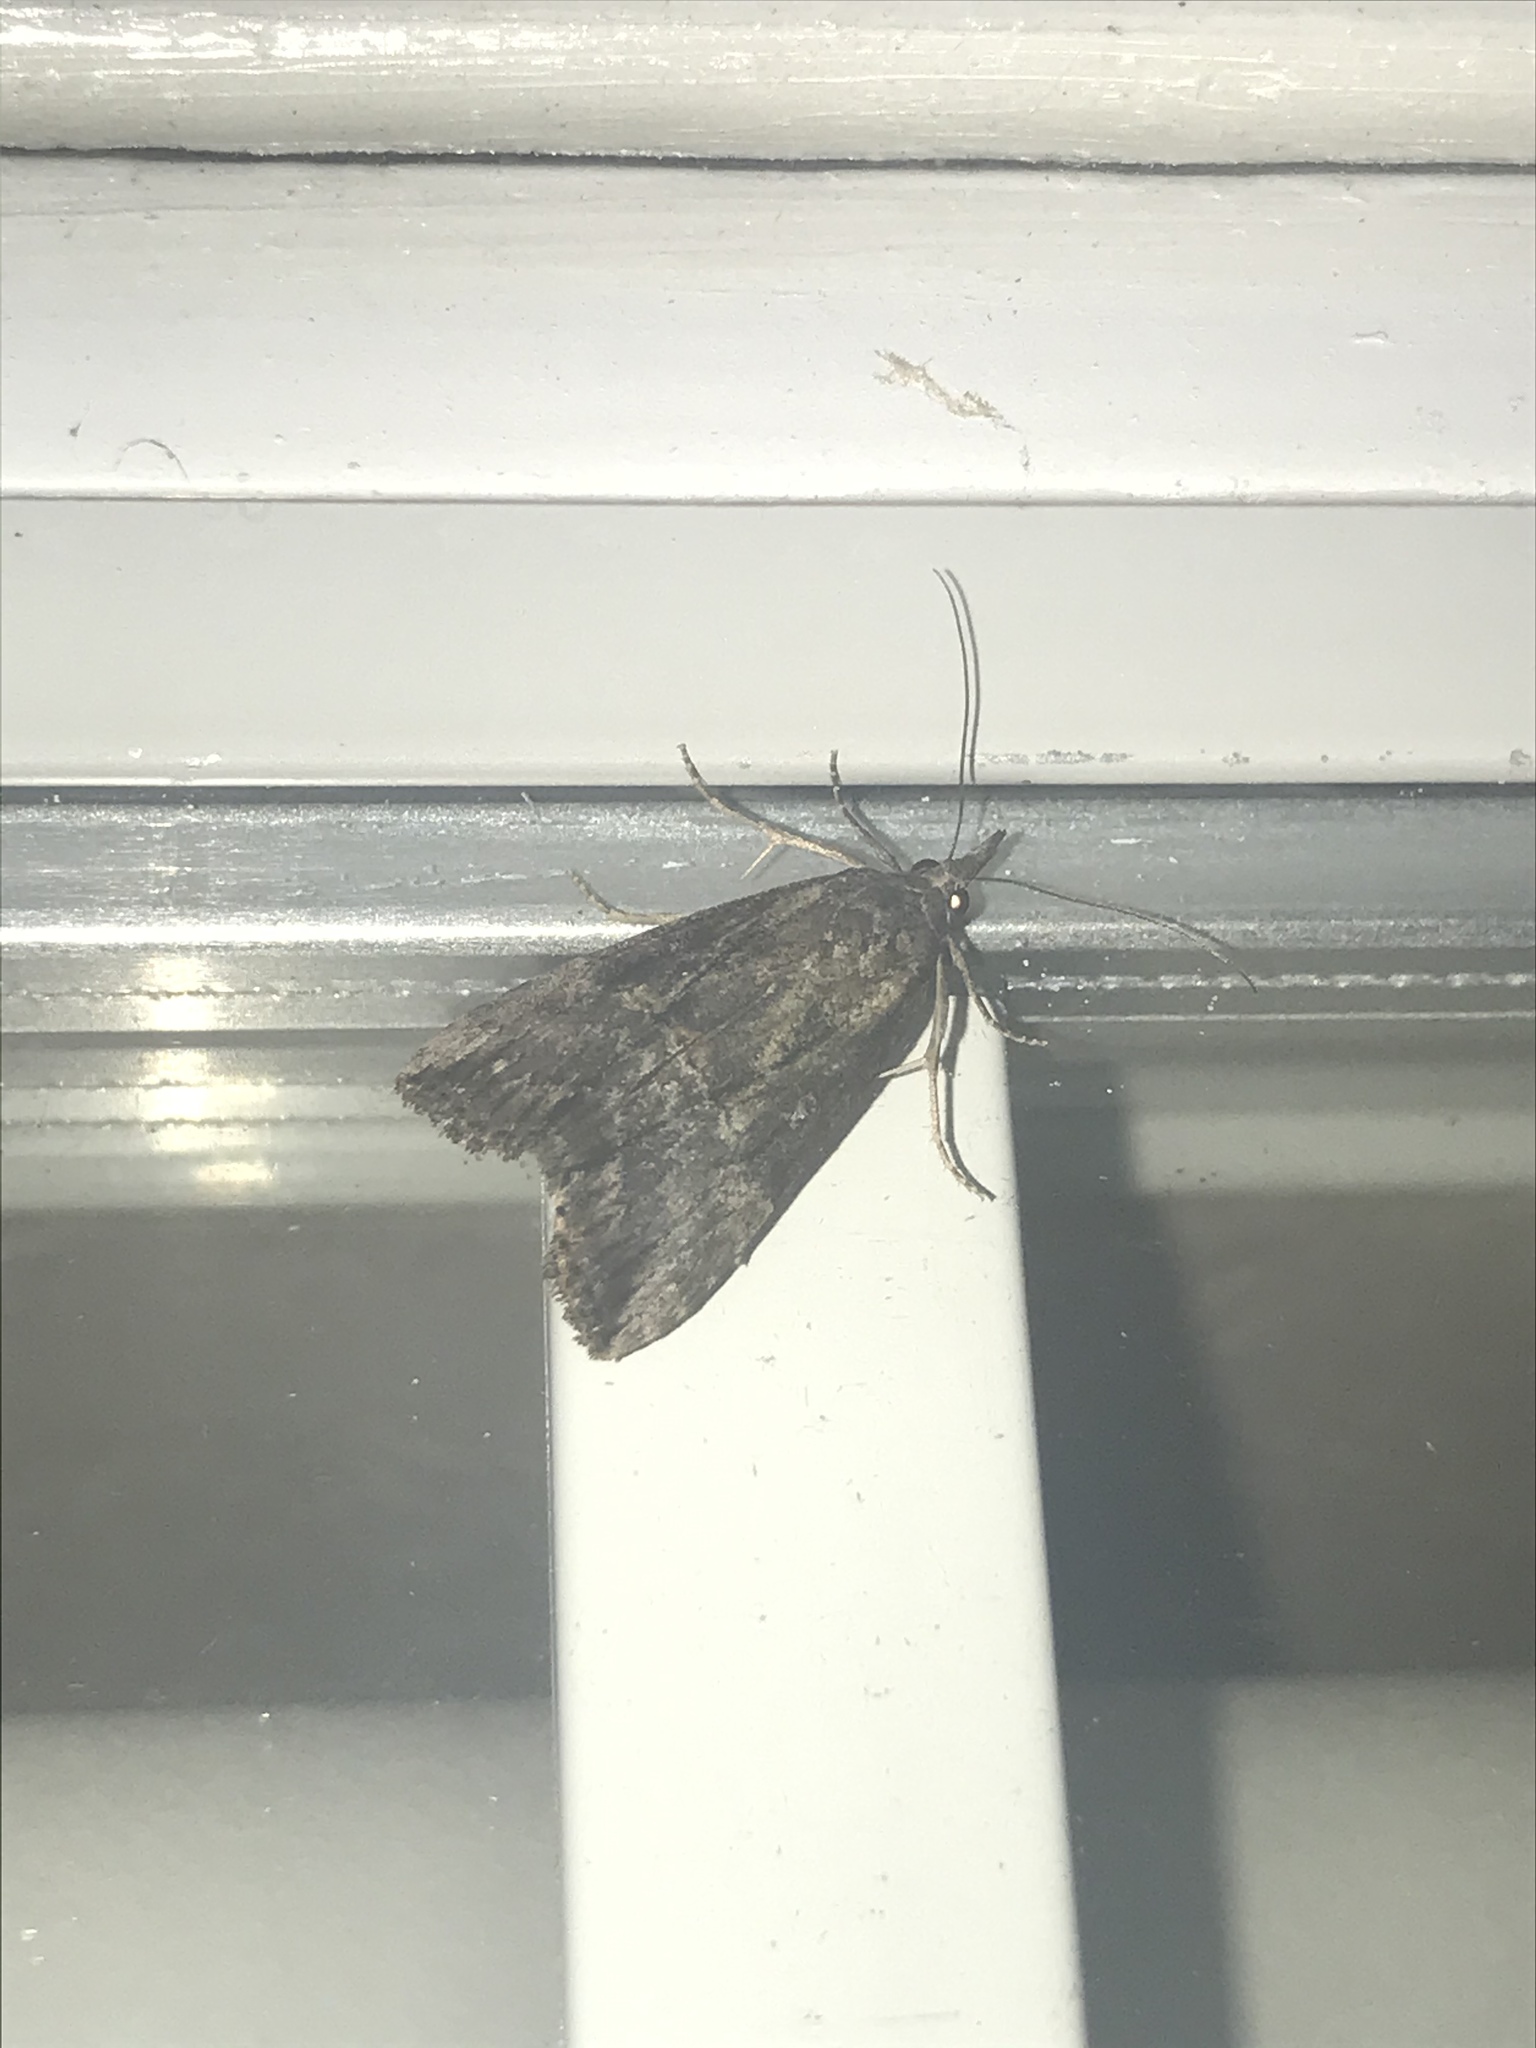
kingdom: Animalia
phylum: Arthropoda
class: Insecta
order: Lepidoptera
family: Erebidae
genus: Hypena
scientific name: Hypena scabra
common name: Green cloverworm
